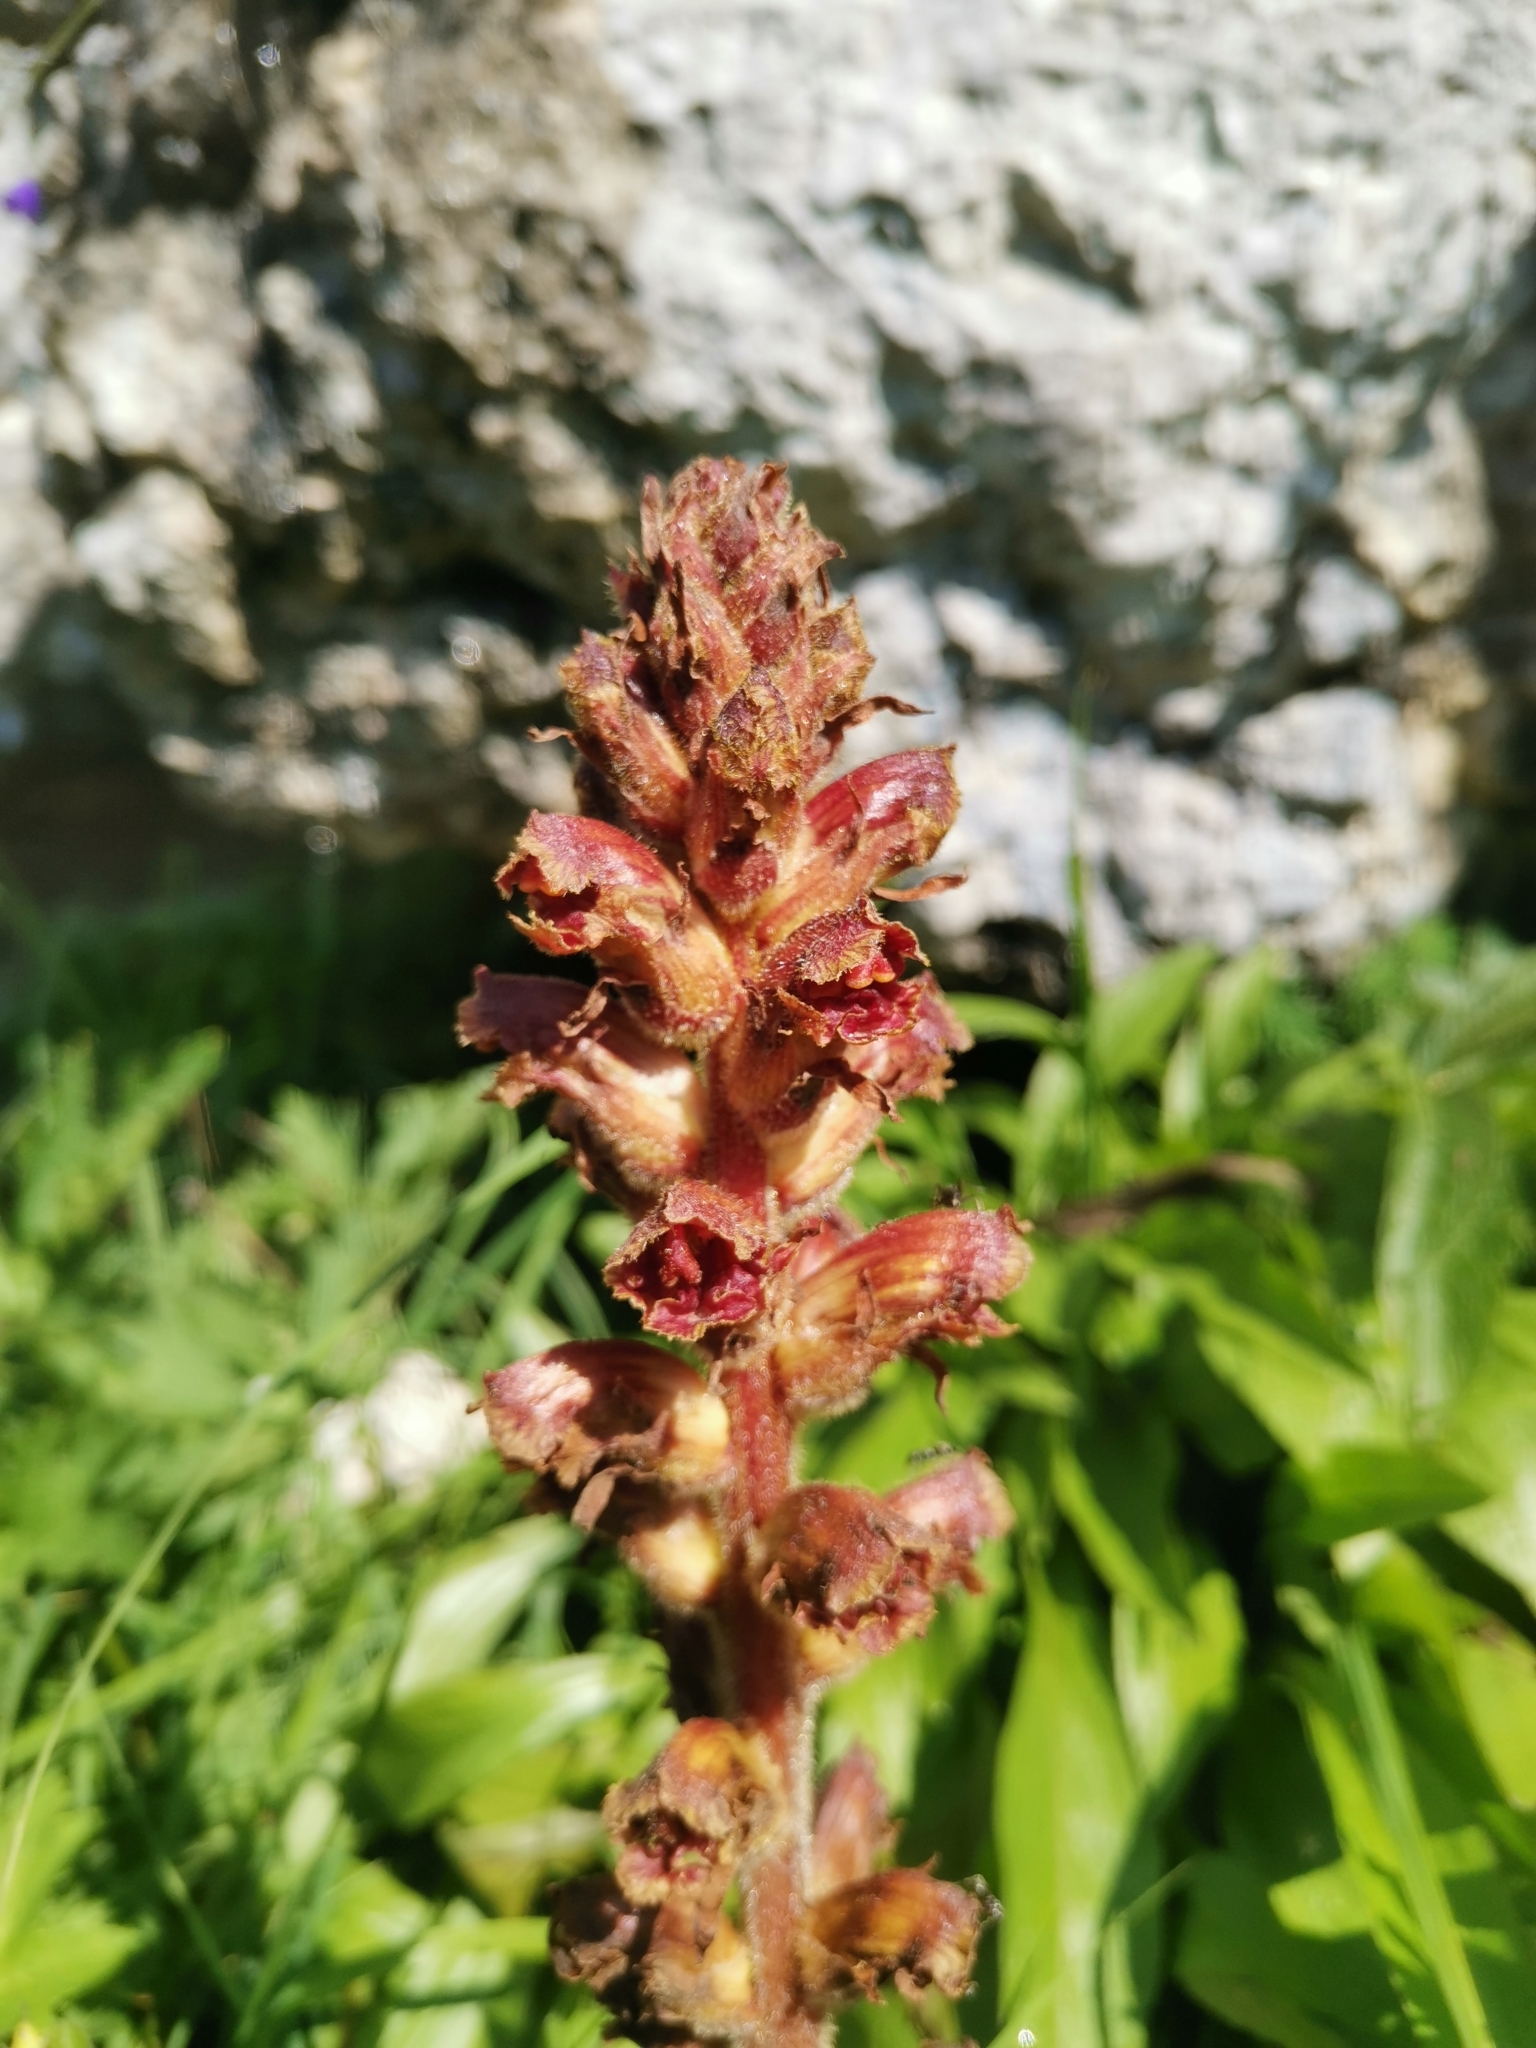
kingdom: Plantae
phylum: Tracheophyta
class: Magnoliopsida
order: Lamiales
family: Orobanchaceae
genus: Orobanche
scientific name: Orobanche gracilis
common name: Slender broomrape
